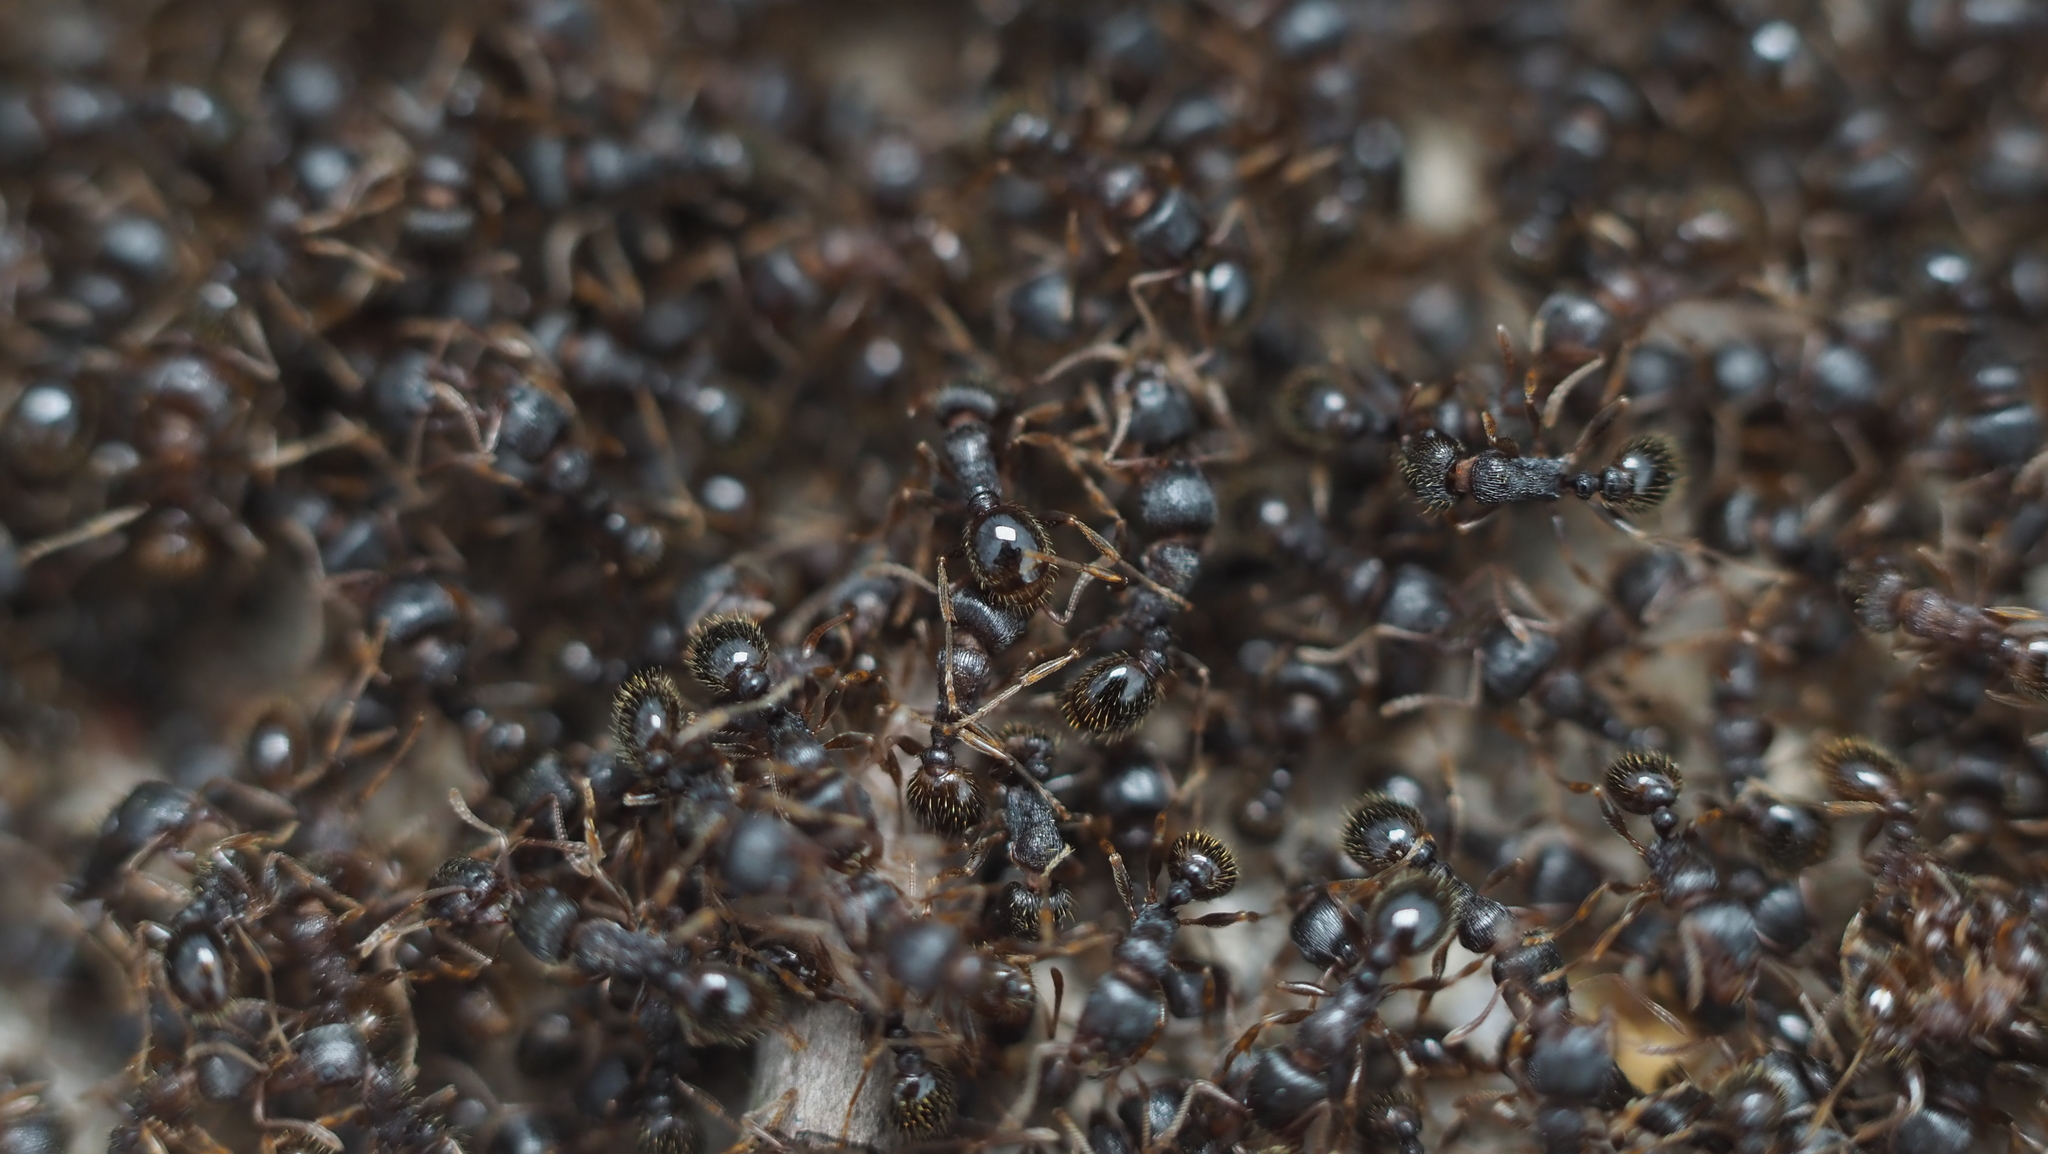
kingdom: Animalia
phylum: Arthropoda
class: Insecta
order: Hymenoptera
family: Formicidae
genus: Tetramorium
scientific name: Tetramorium immigrans
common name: Pavement ant
